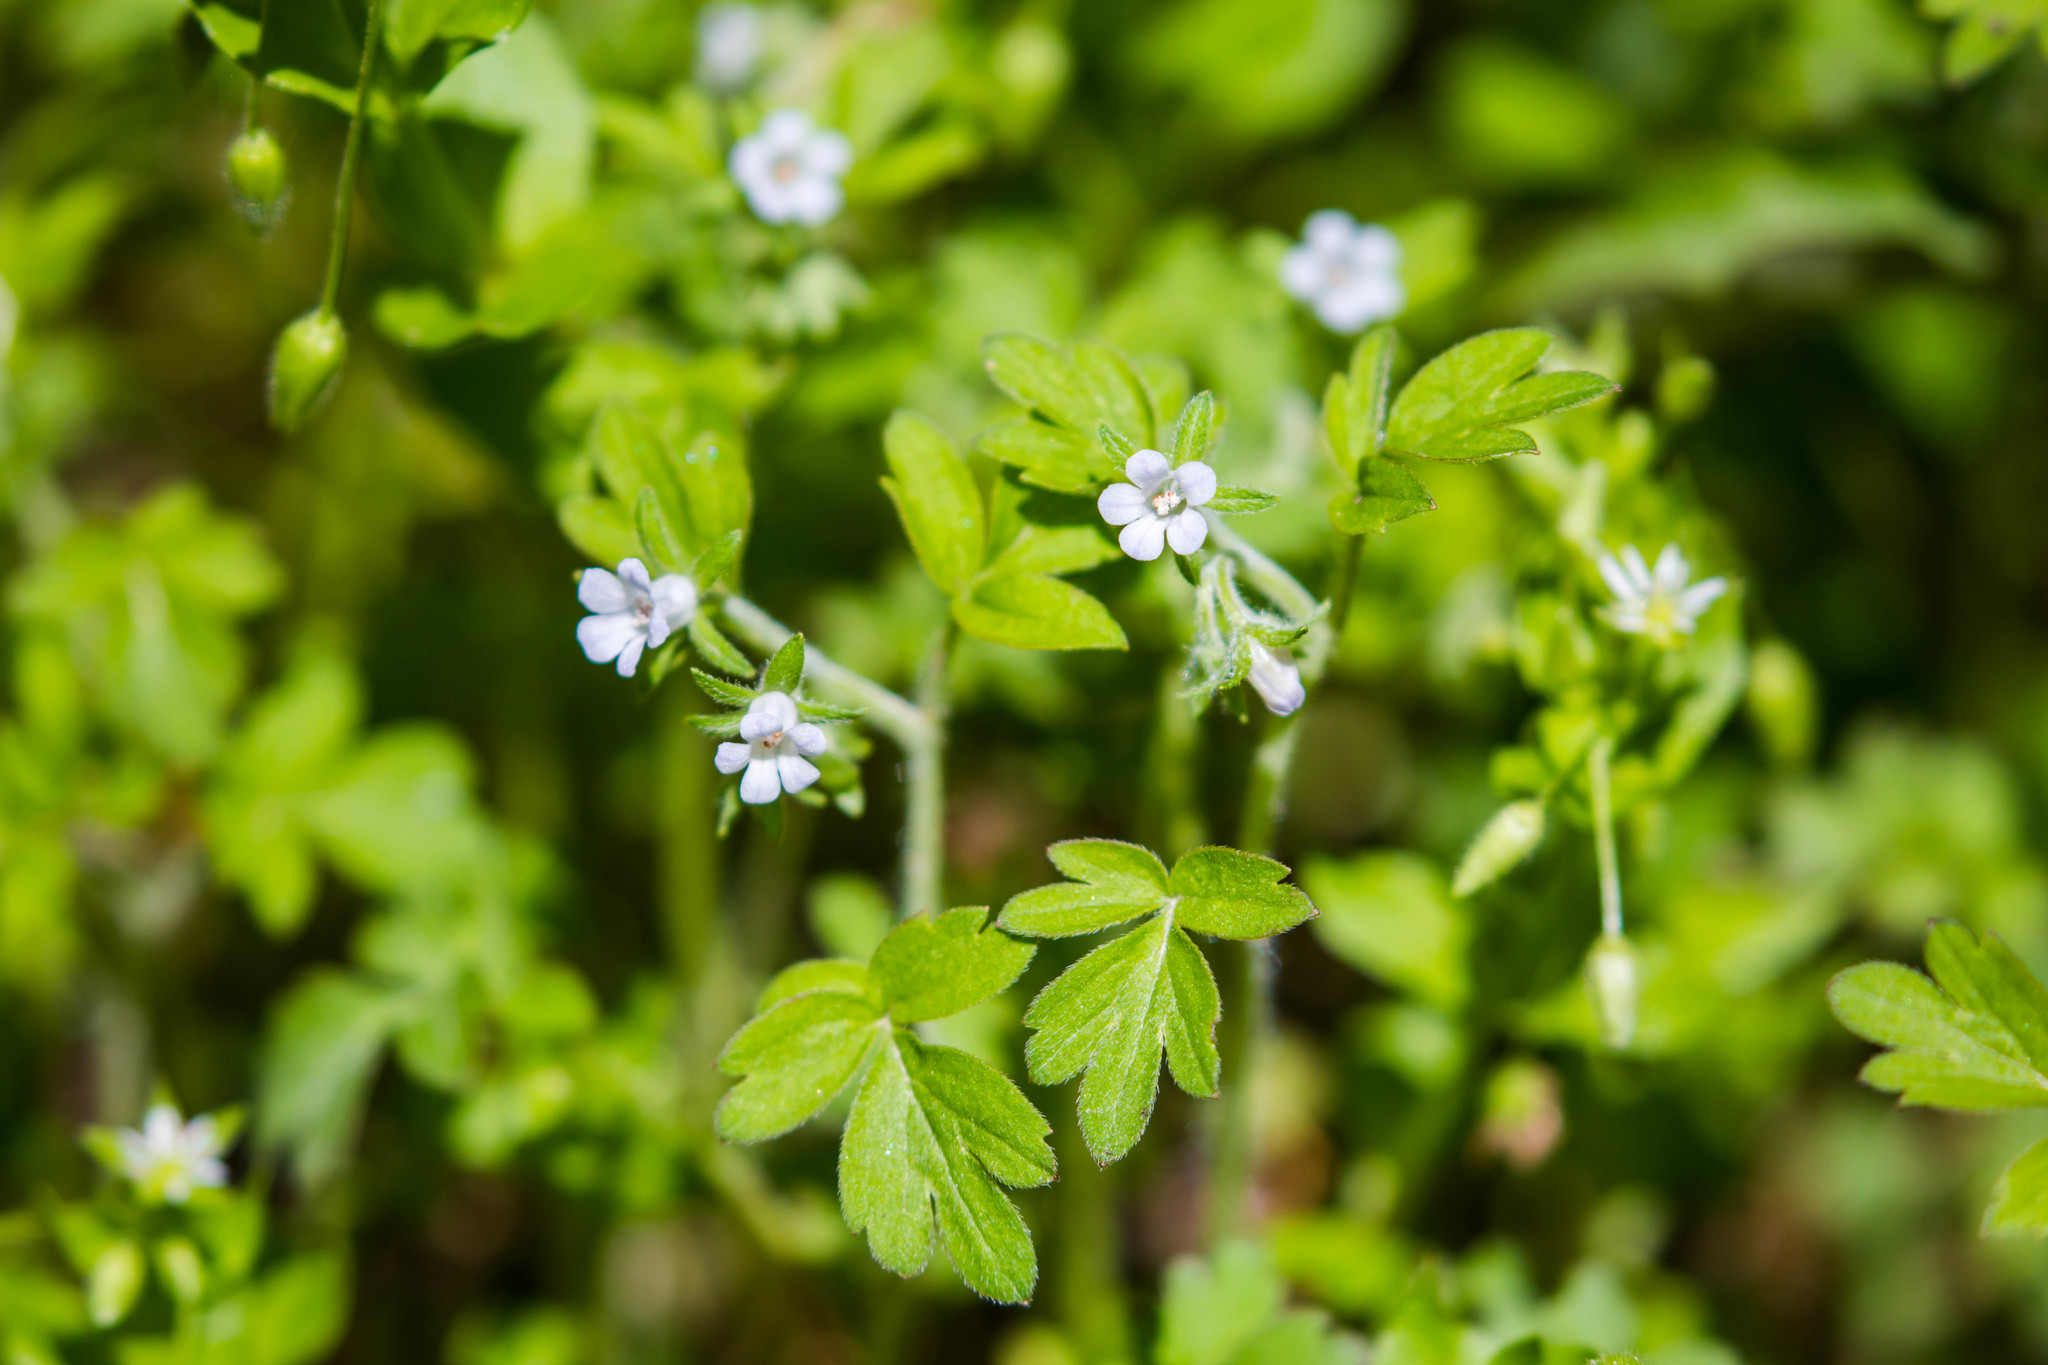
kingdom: Plantae
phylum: Tracheophyta
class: Magnoliopsida
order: Boraginales
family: Hydrophyllaceae
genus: Phacelia
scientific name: Phacelia ranunculacea
